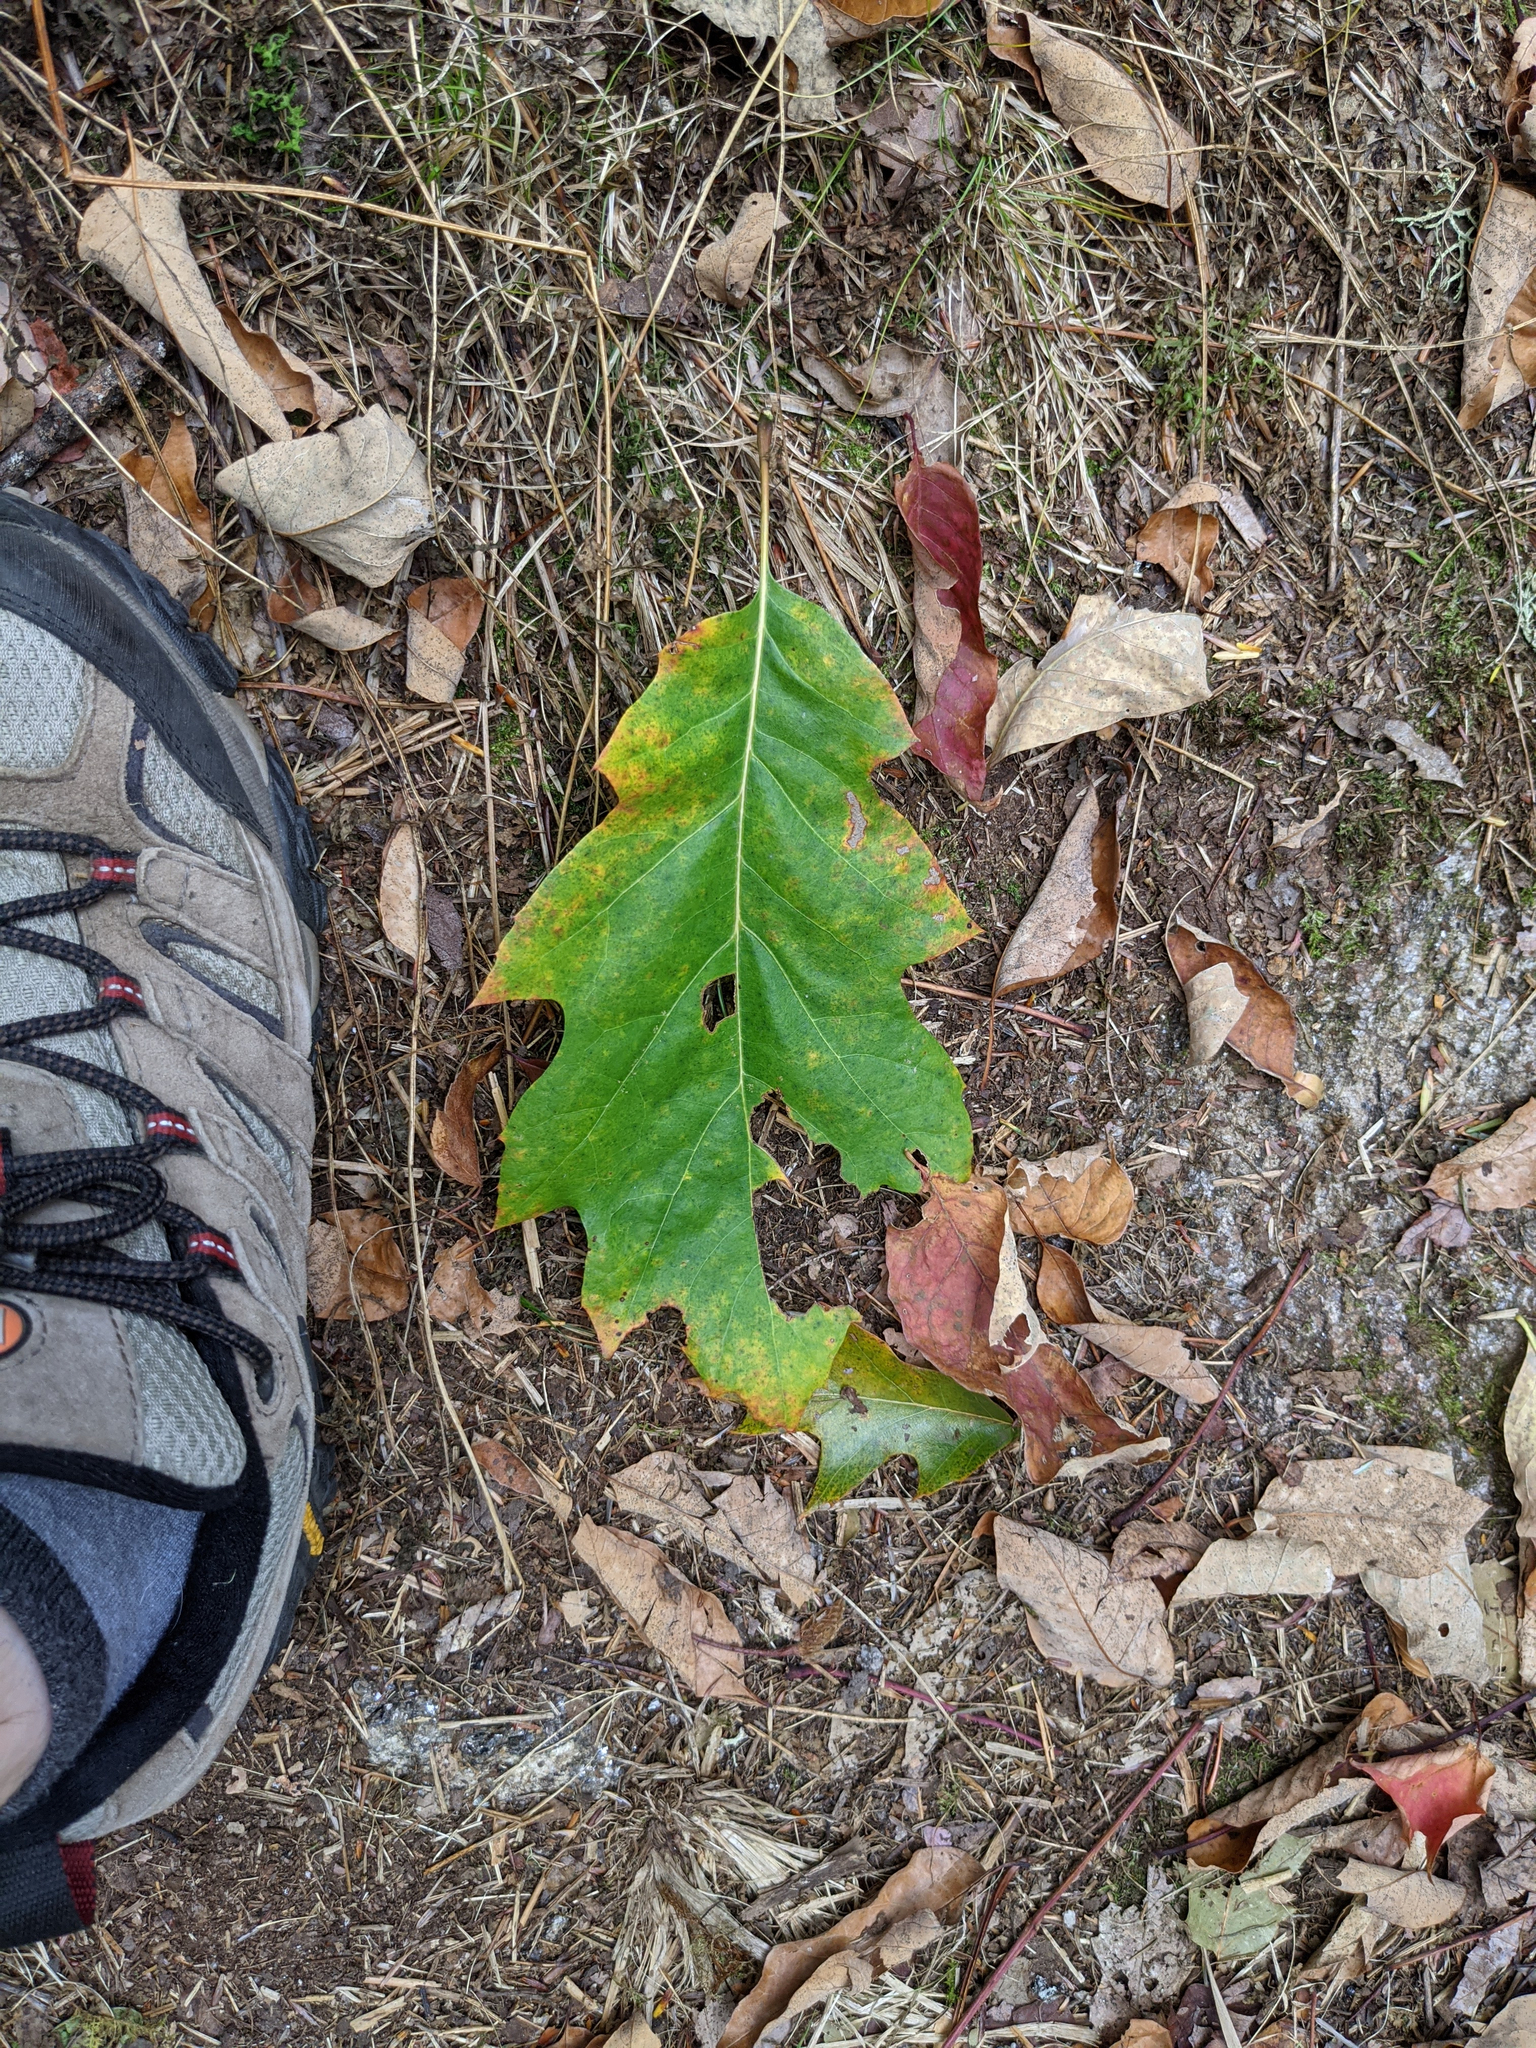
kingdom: Plantae
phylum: Tracheophyta
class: Magnoliopsida
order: Fagales
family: Fagaceae
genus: Quercus
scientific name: Quercus rubra
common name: Red oak
